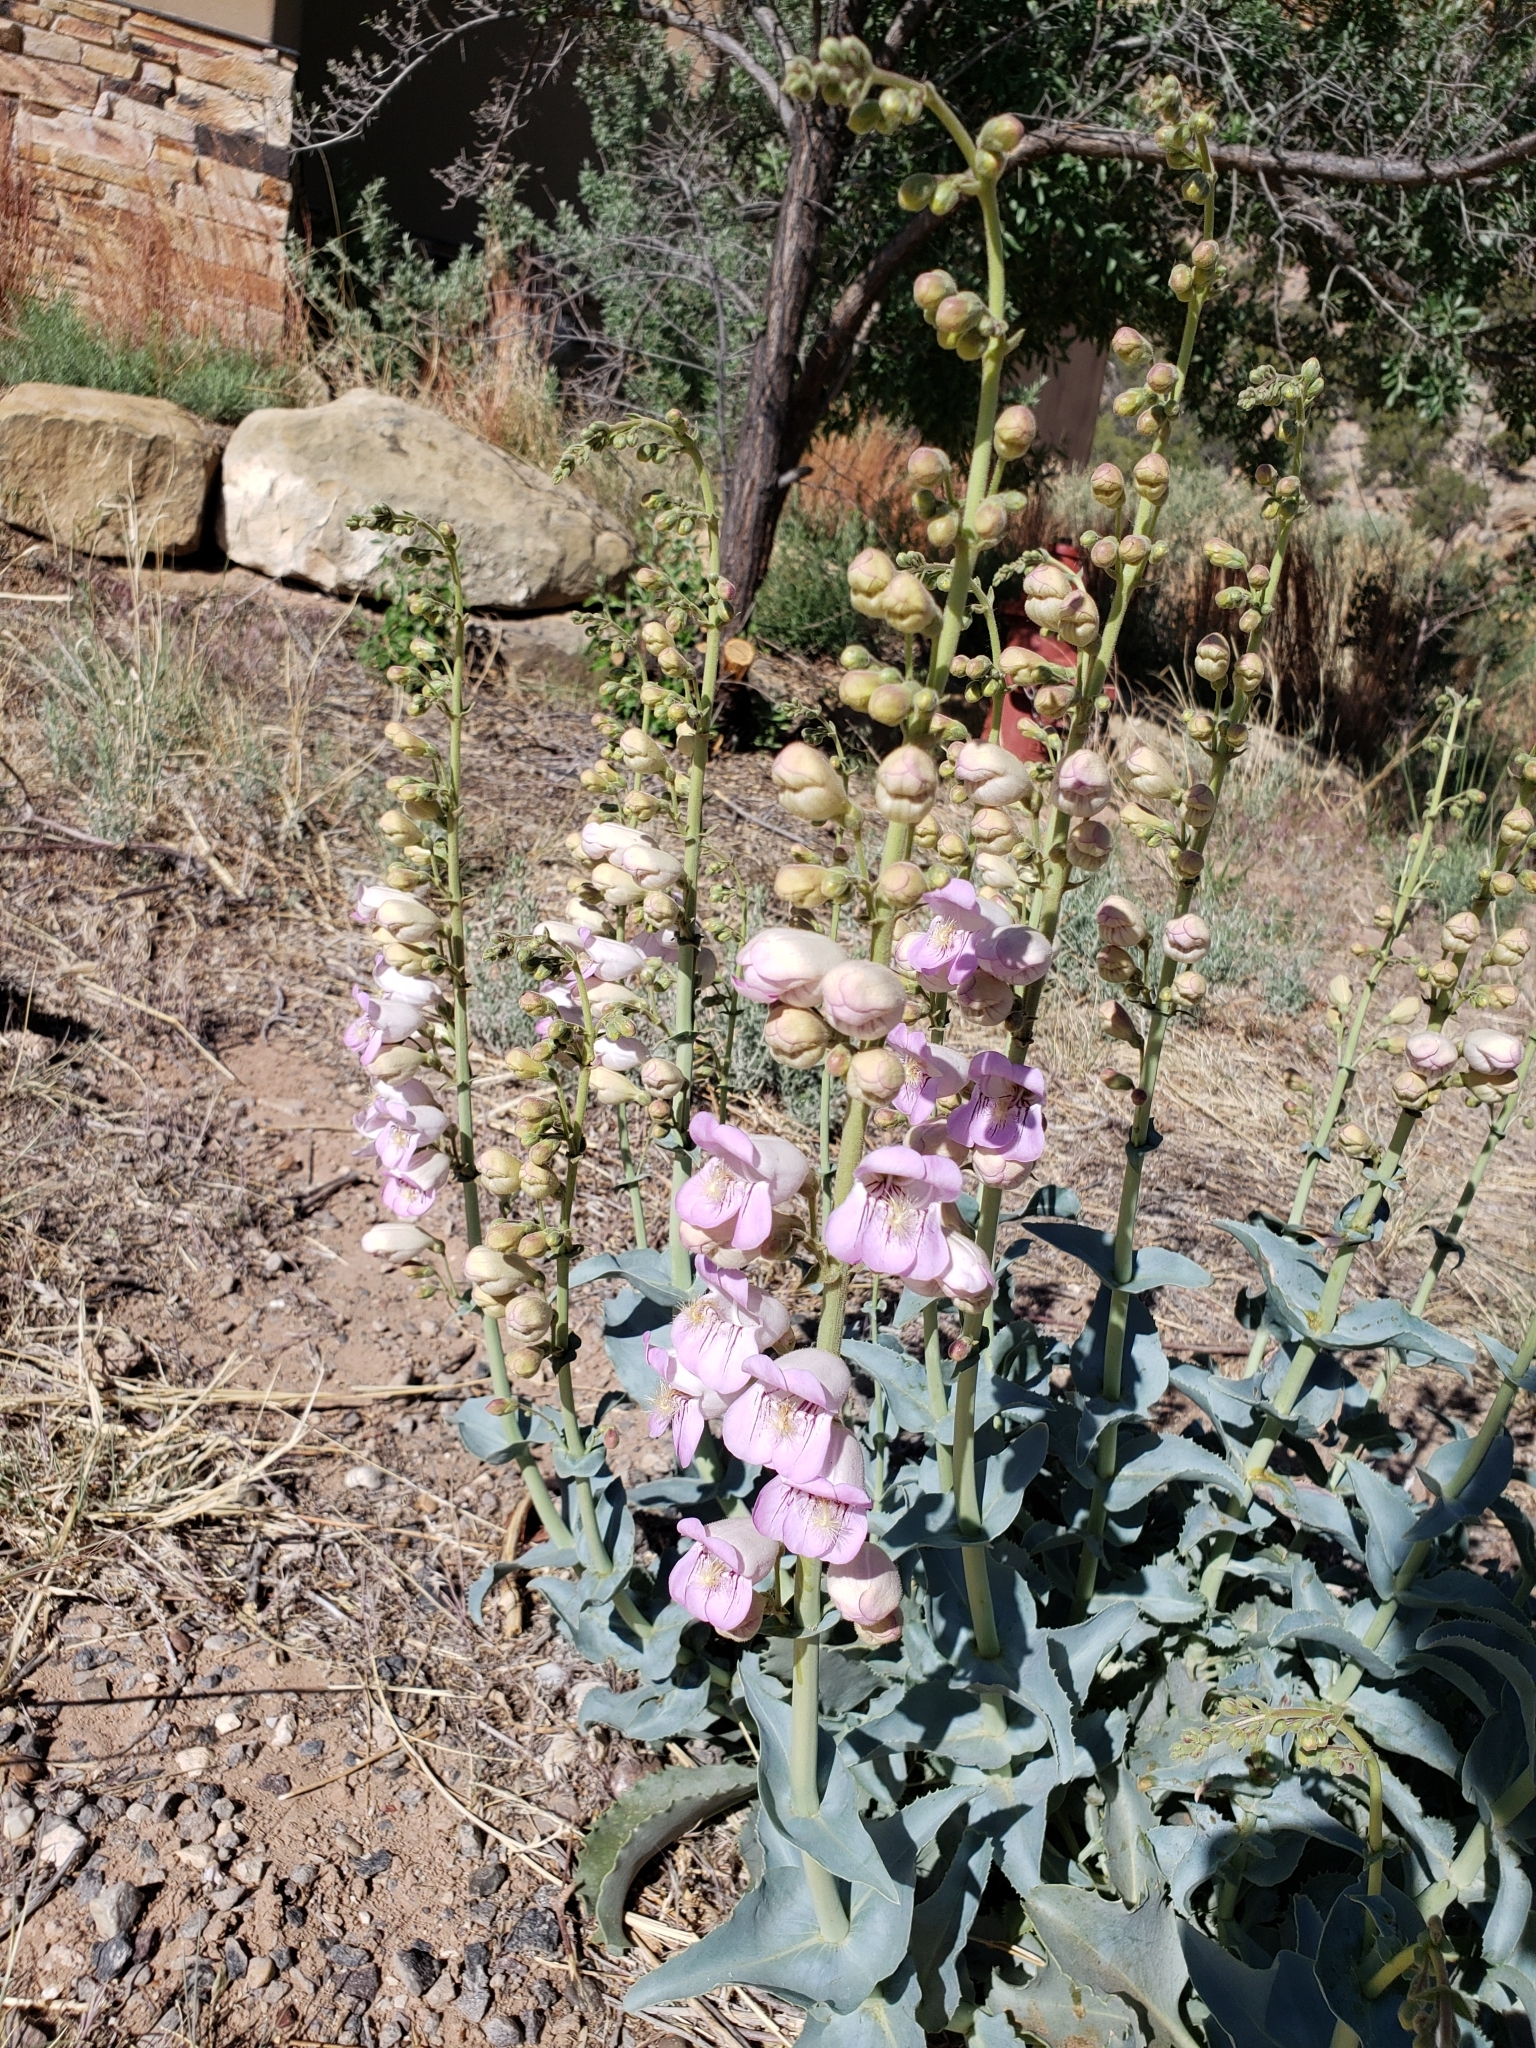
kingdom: Plantae
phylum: Tracheophyta
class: Magnoliopsida
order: Lamiales
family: Plantaginaceae
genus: Penstemon
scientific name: Penstemon palmeri
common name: Palmer penstemon
